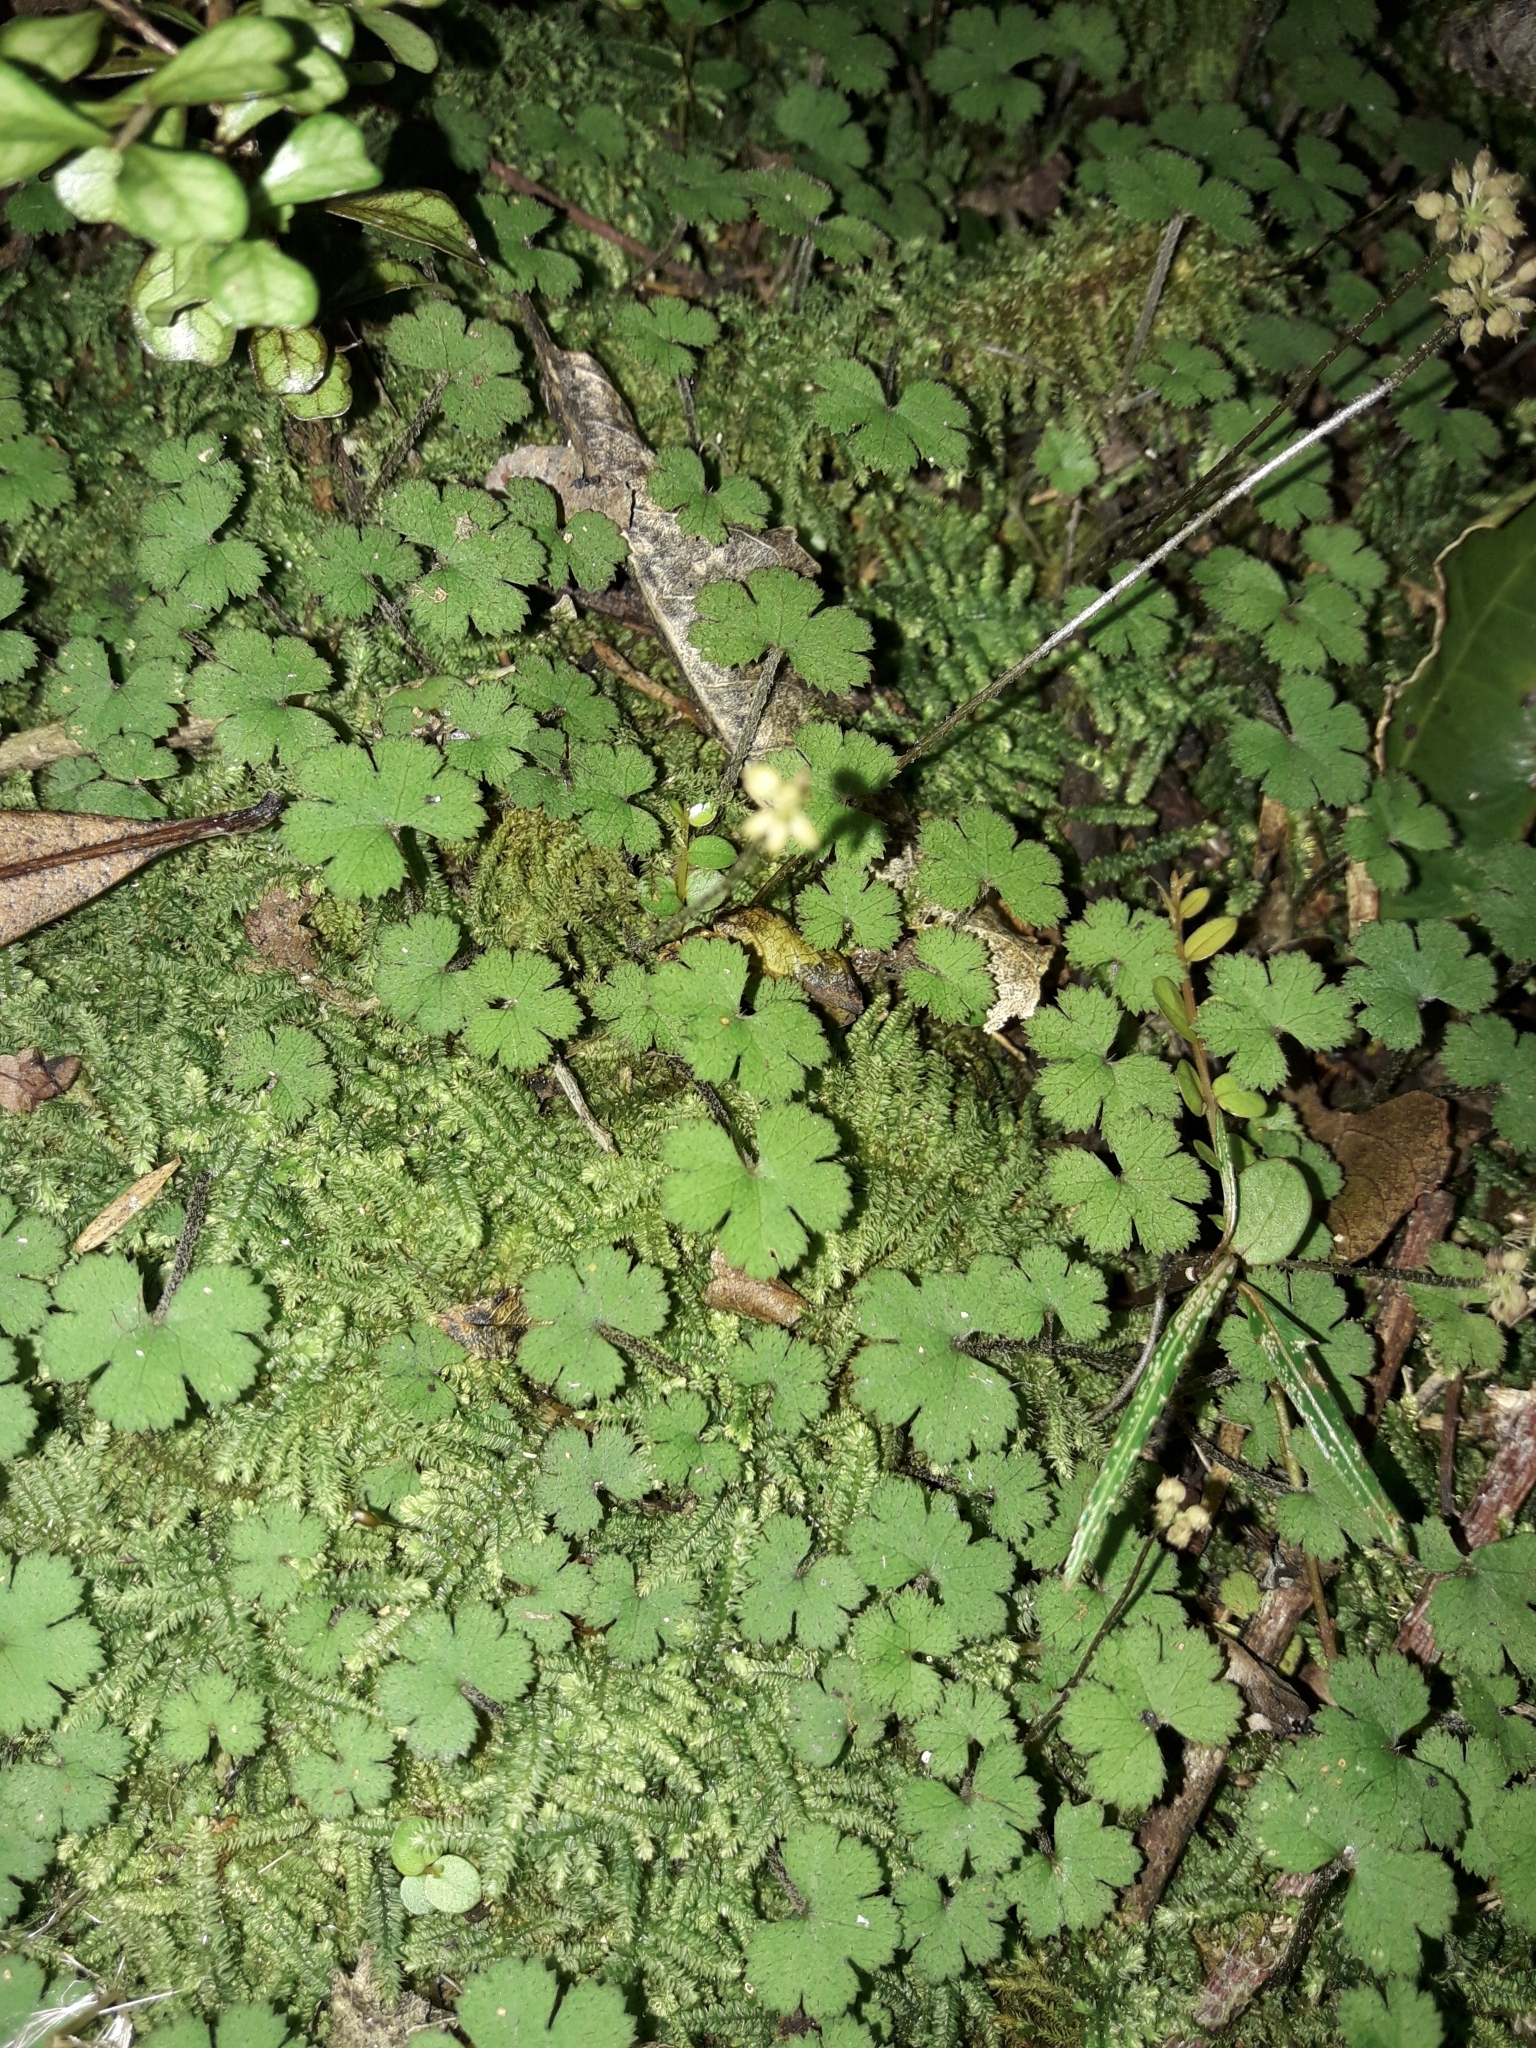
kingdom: Plantae
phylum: Tracheophyta
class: Magnoliopsida
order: Apiales
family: Araliaceae
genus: Hydrocotyle
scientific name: Hydrocotyle elongata
